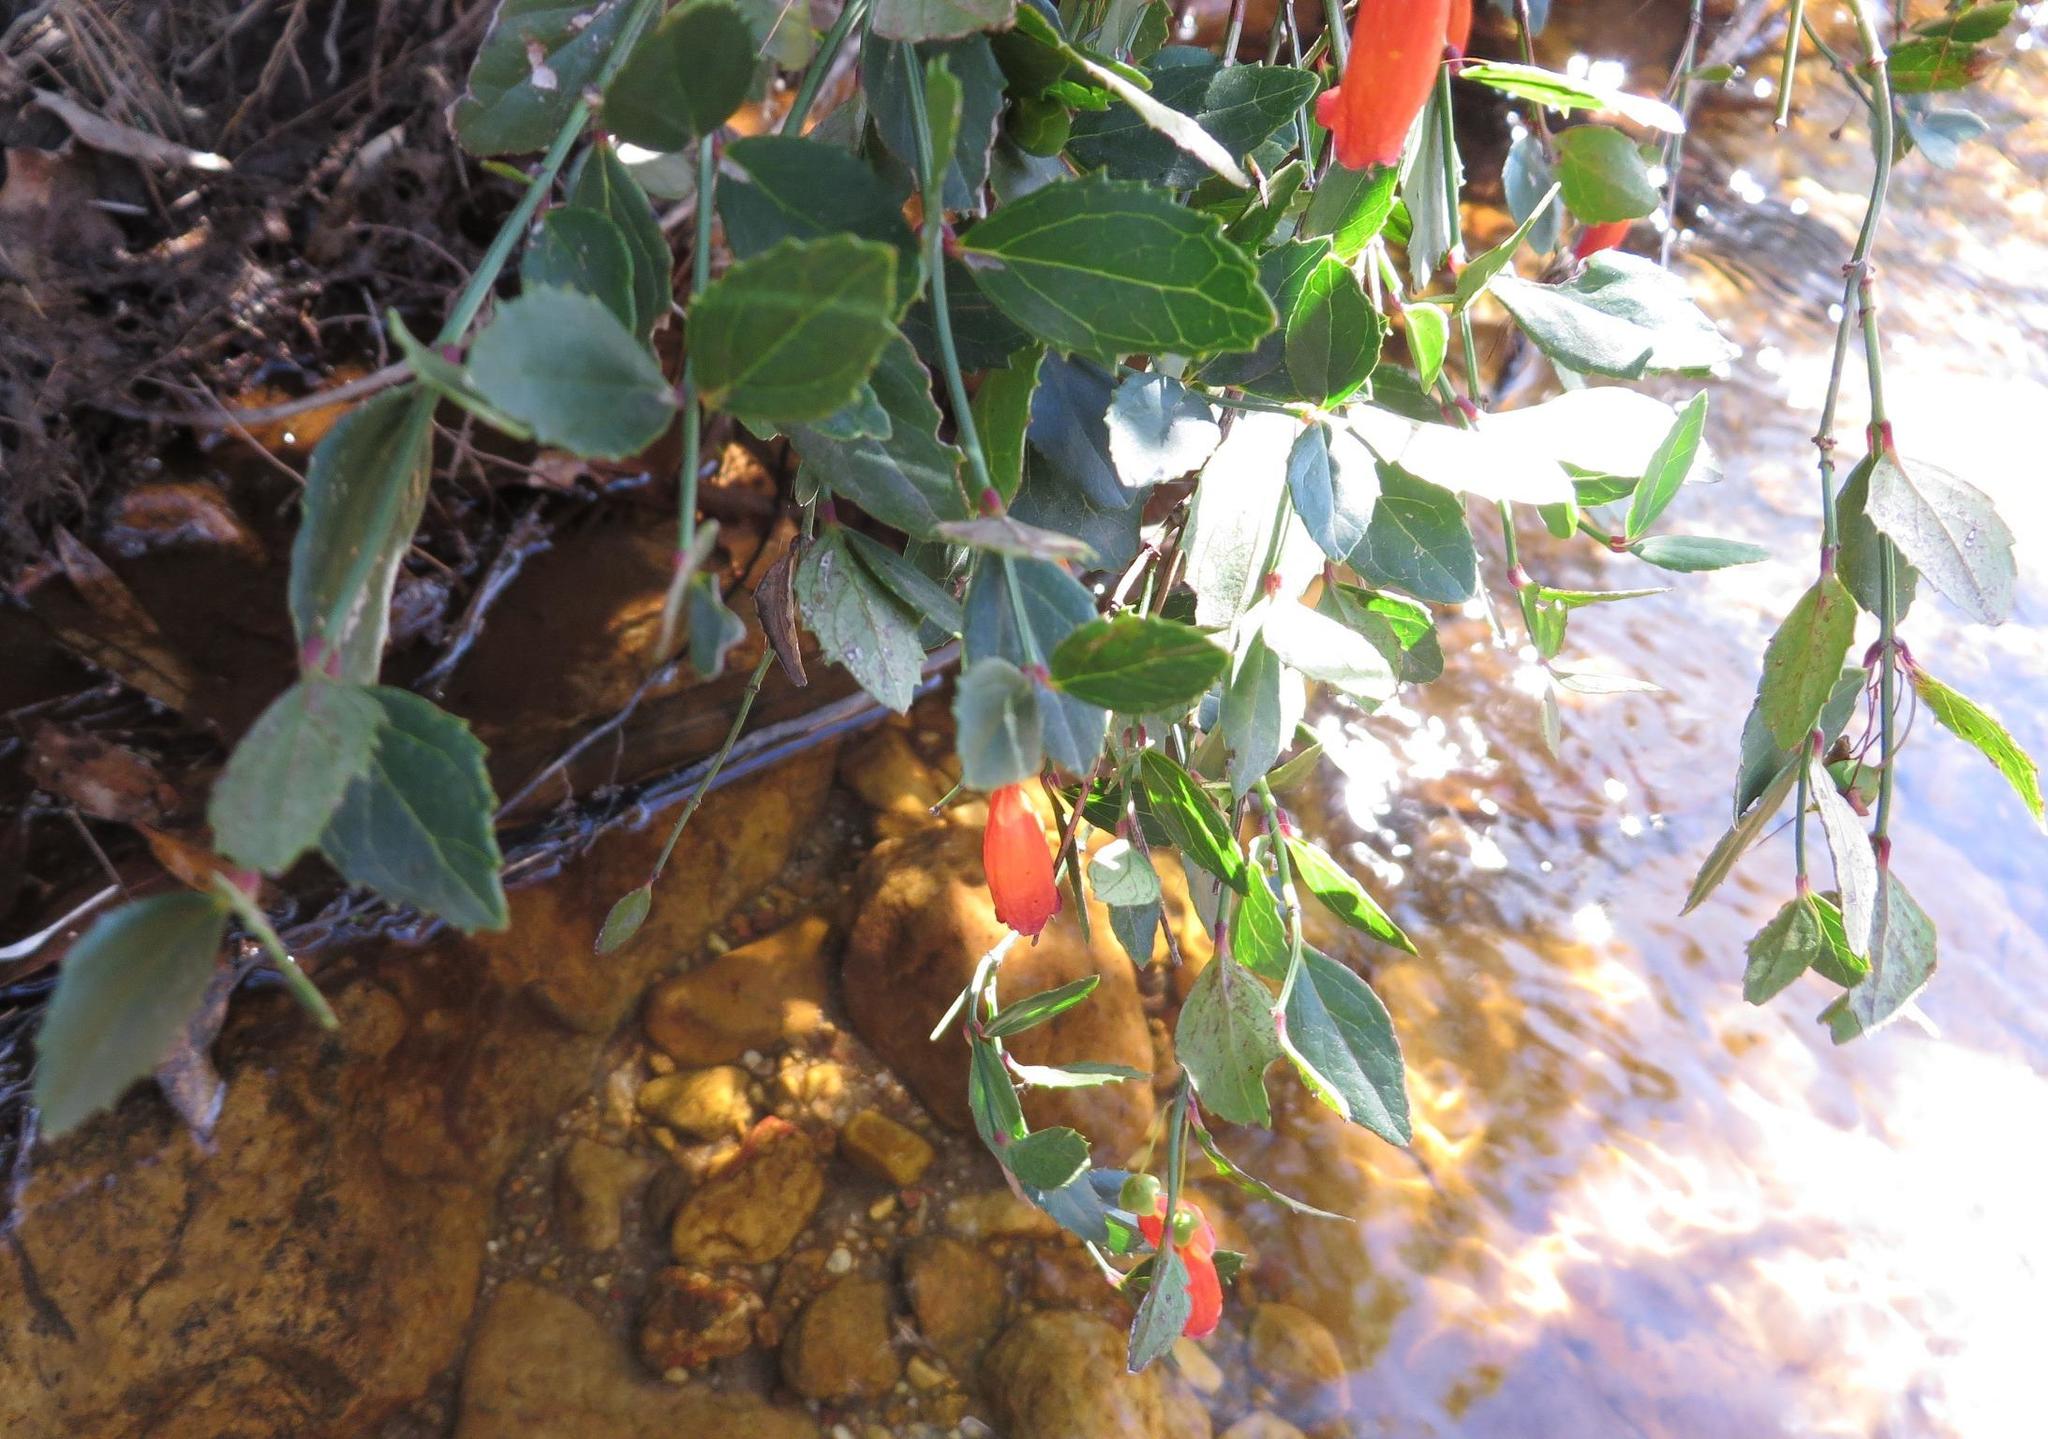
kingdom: Plantae
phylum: Tracheophyta
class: Magnoliopsida
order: Lamiales
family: Stilbaceae
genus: Halleria
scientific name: Halleria elliptica
